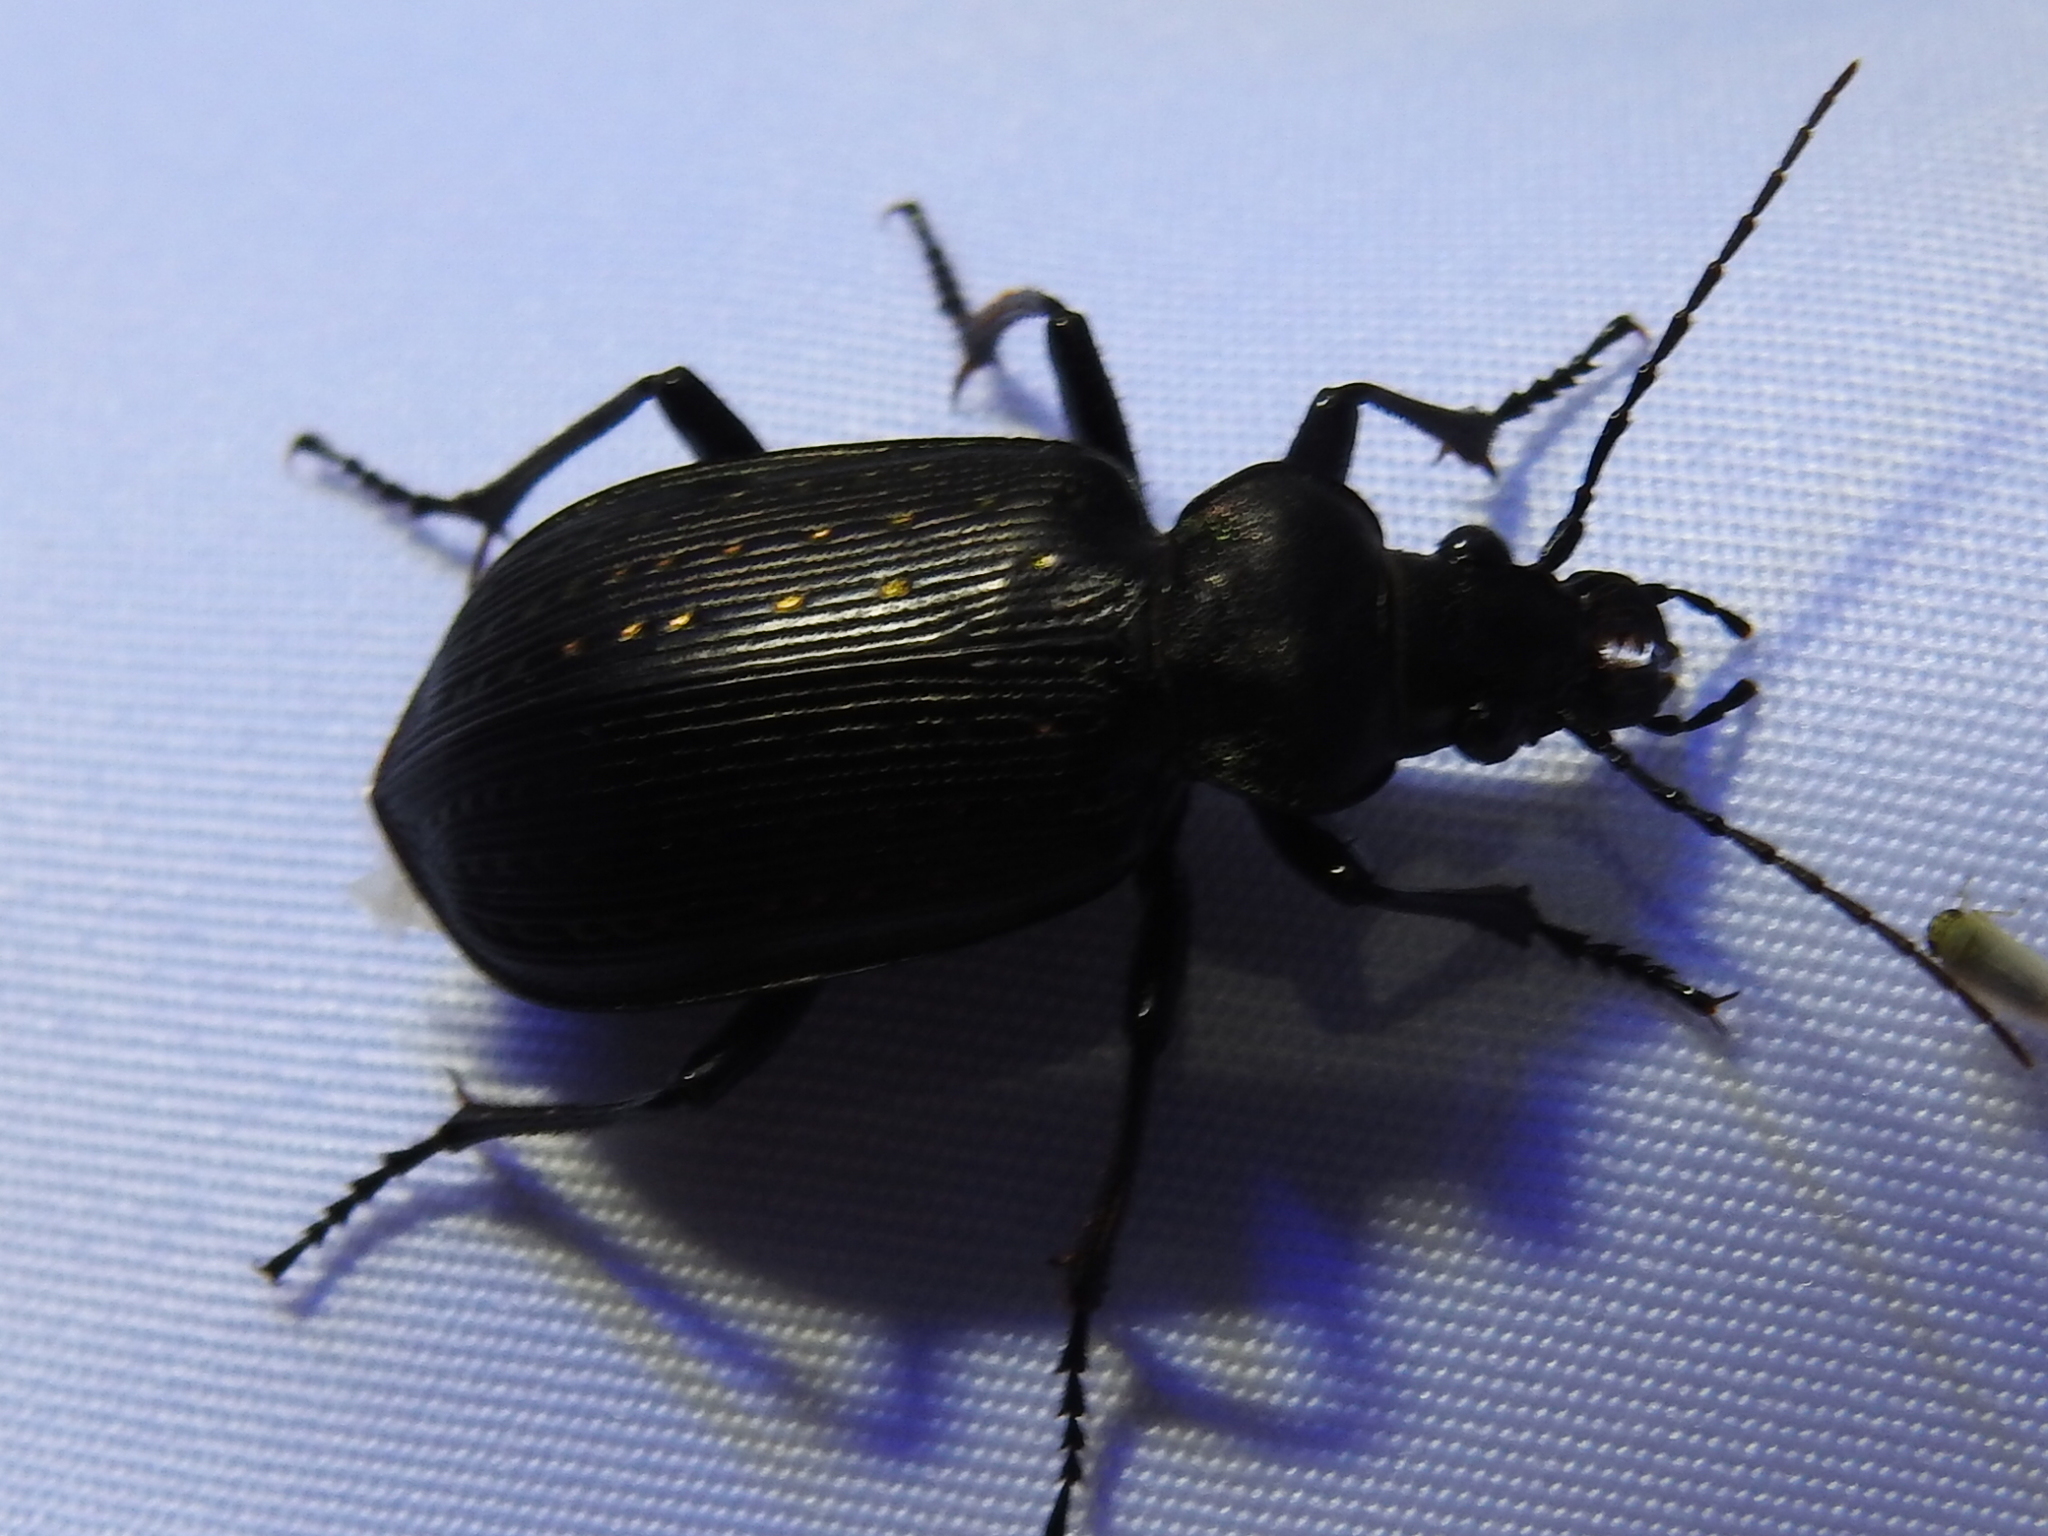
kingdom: Animalia
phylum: Arthropoda
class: Insecta
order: Coleoptera
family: Carabidae
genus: Calosoma
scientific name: Calosoma sayi
